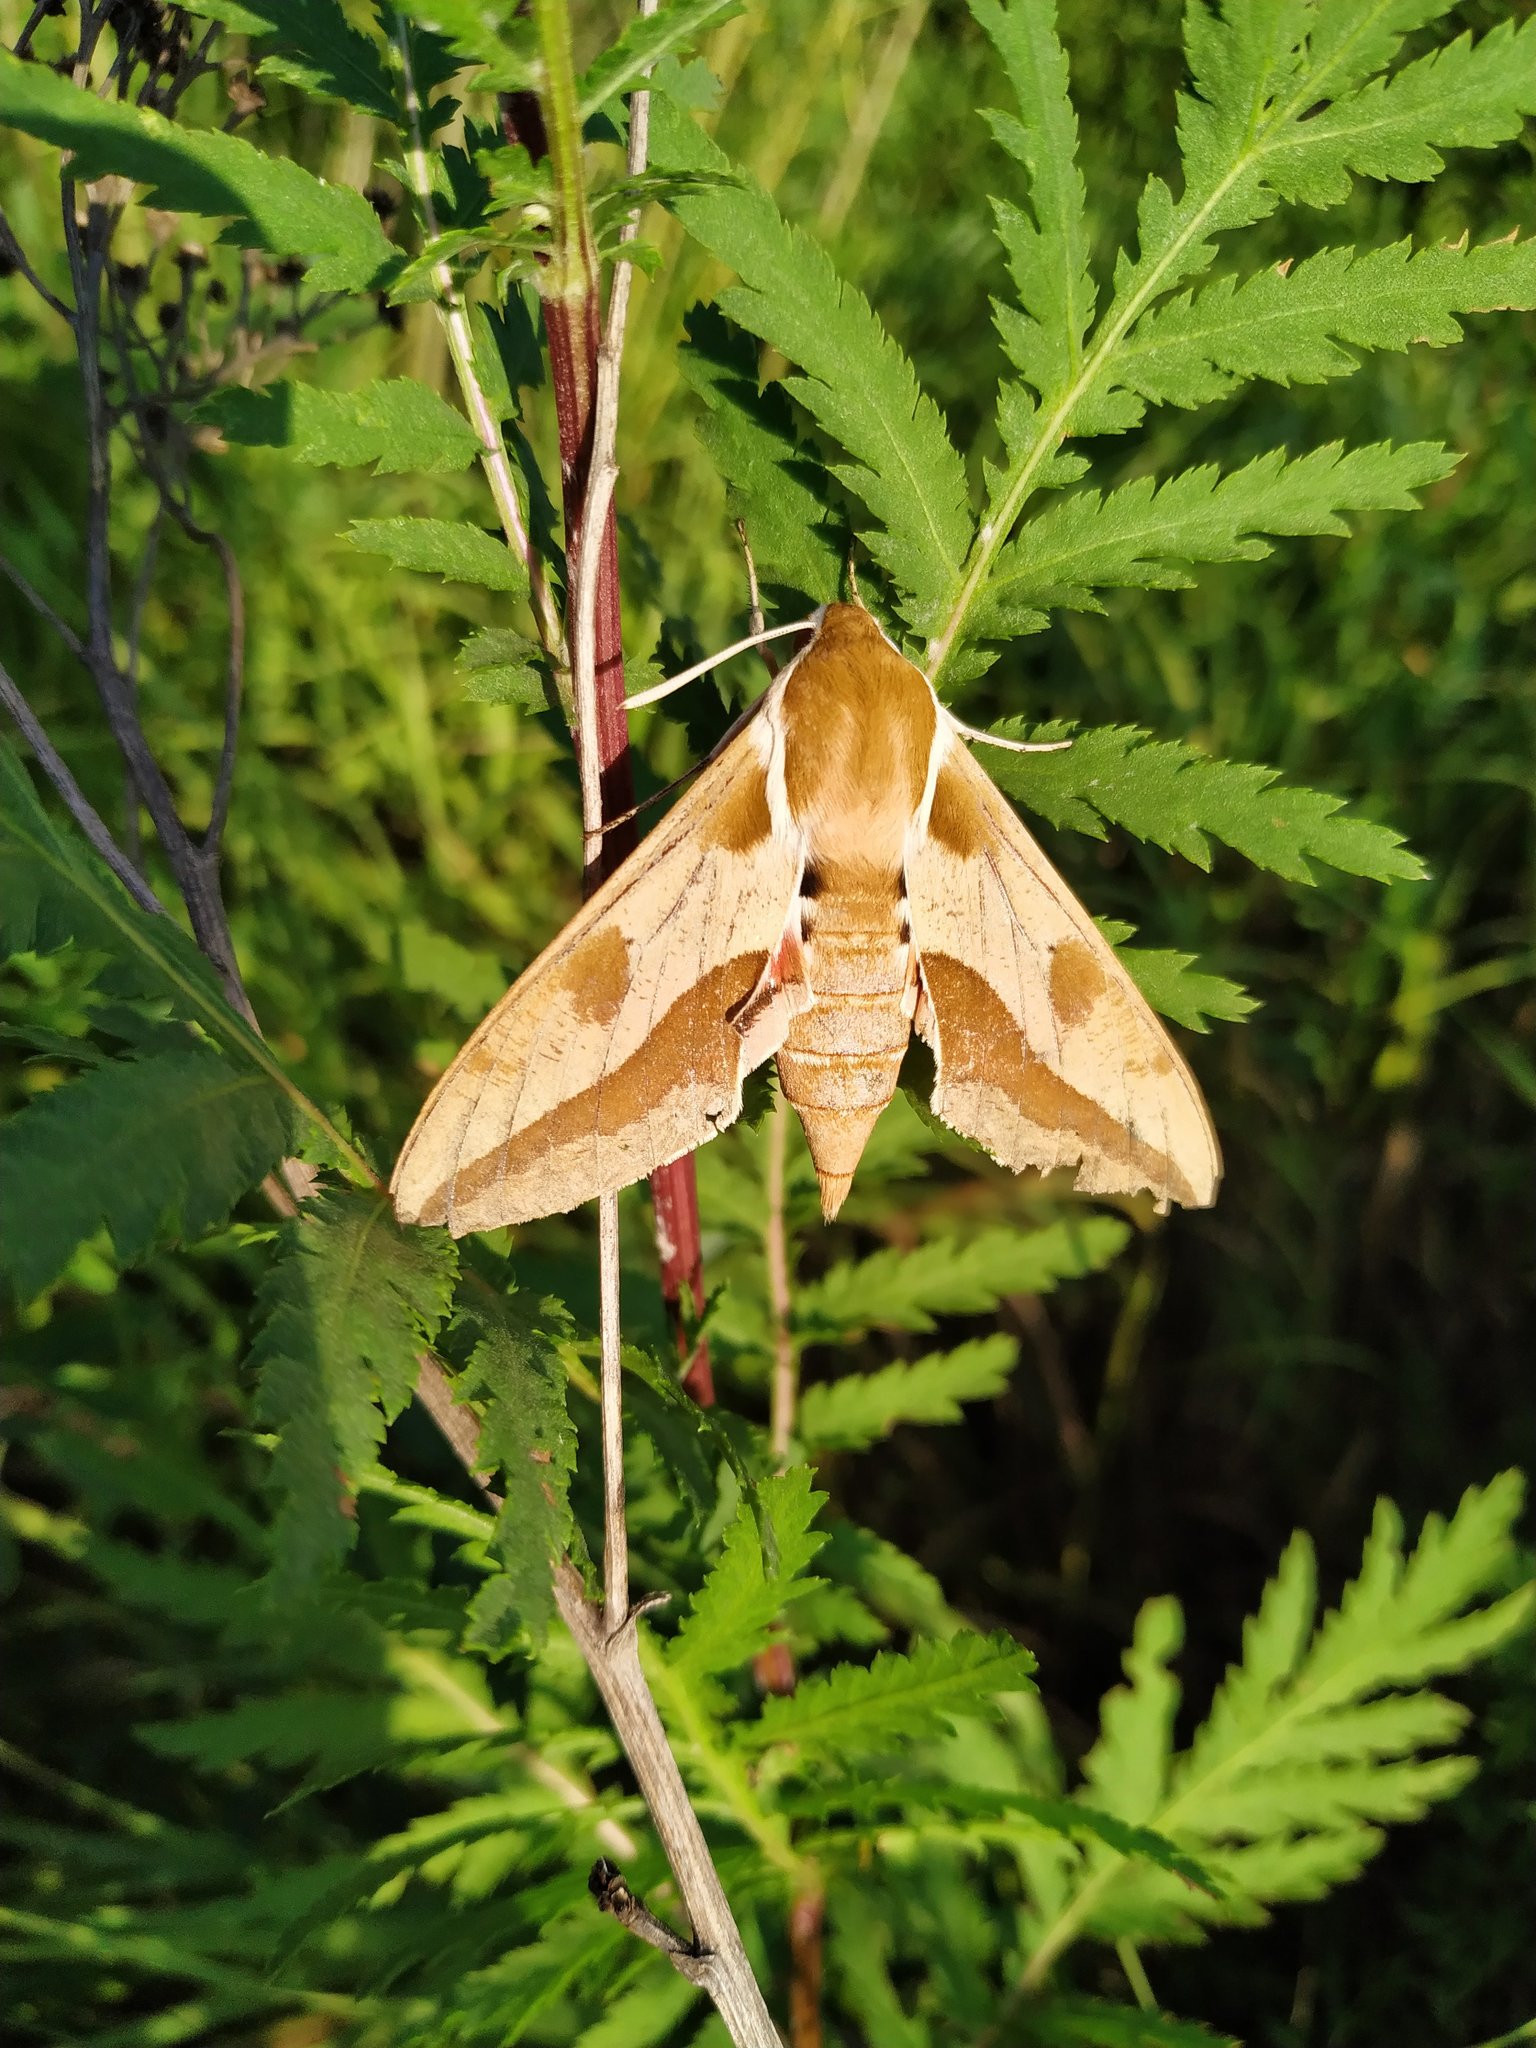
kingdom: Animalia
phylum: Arthropoda
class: Insecta
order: Lepidoptera
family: Sphingidae
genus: Hyles
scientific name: Hyles euphorbiae
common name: Spurge hawk-moth
